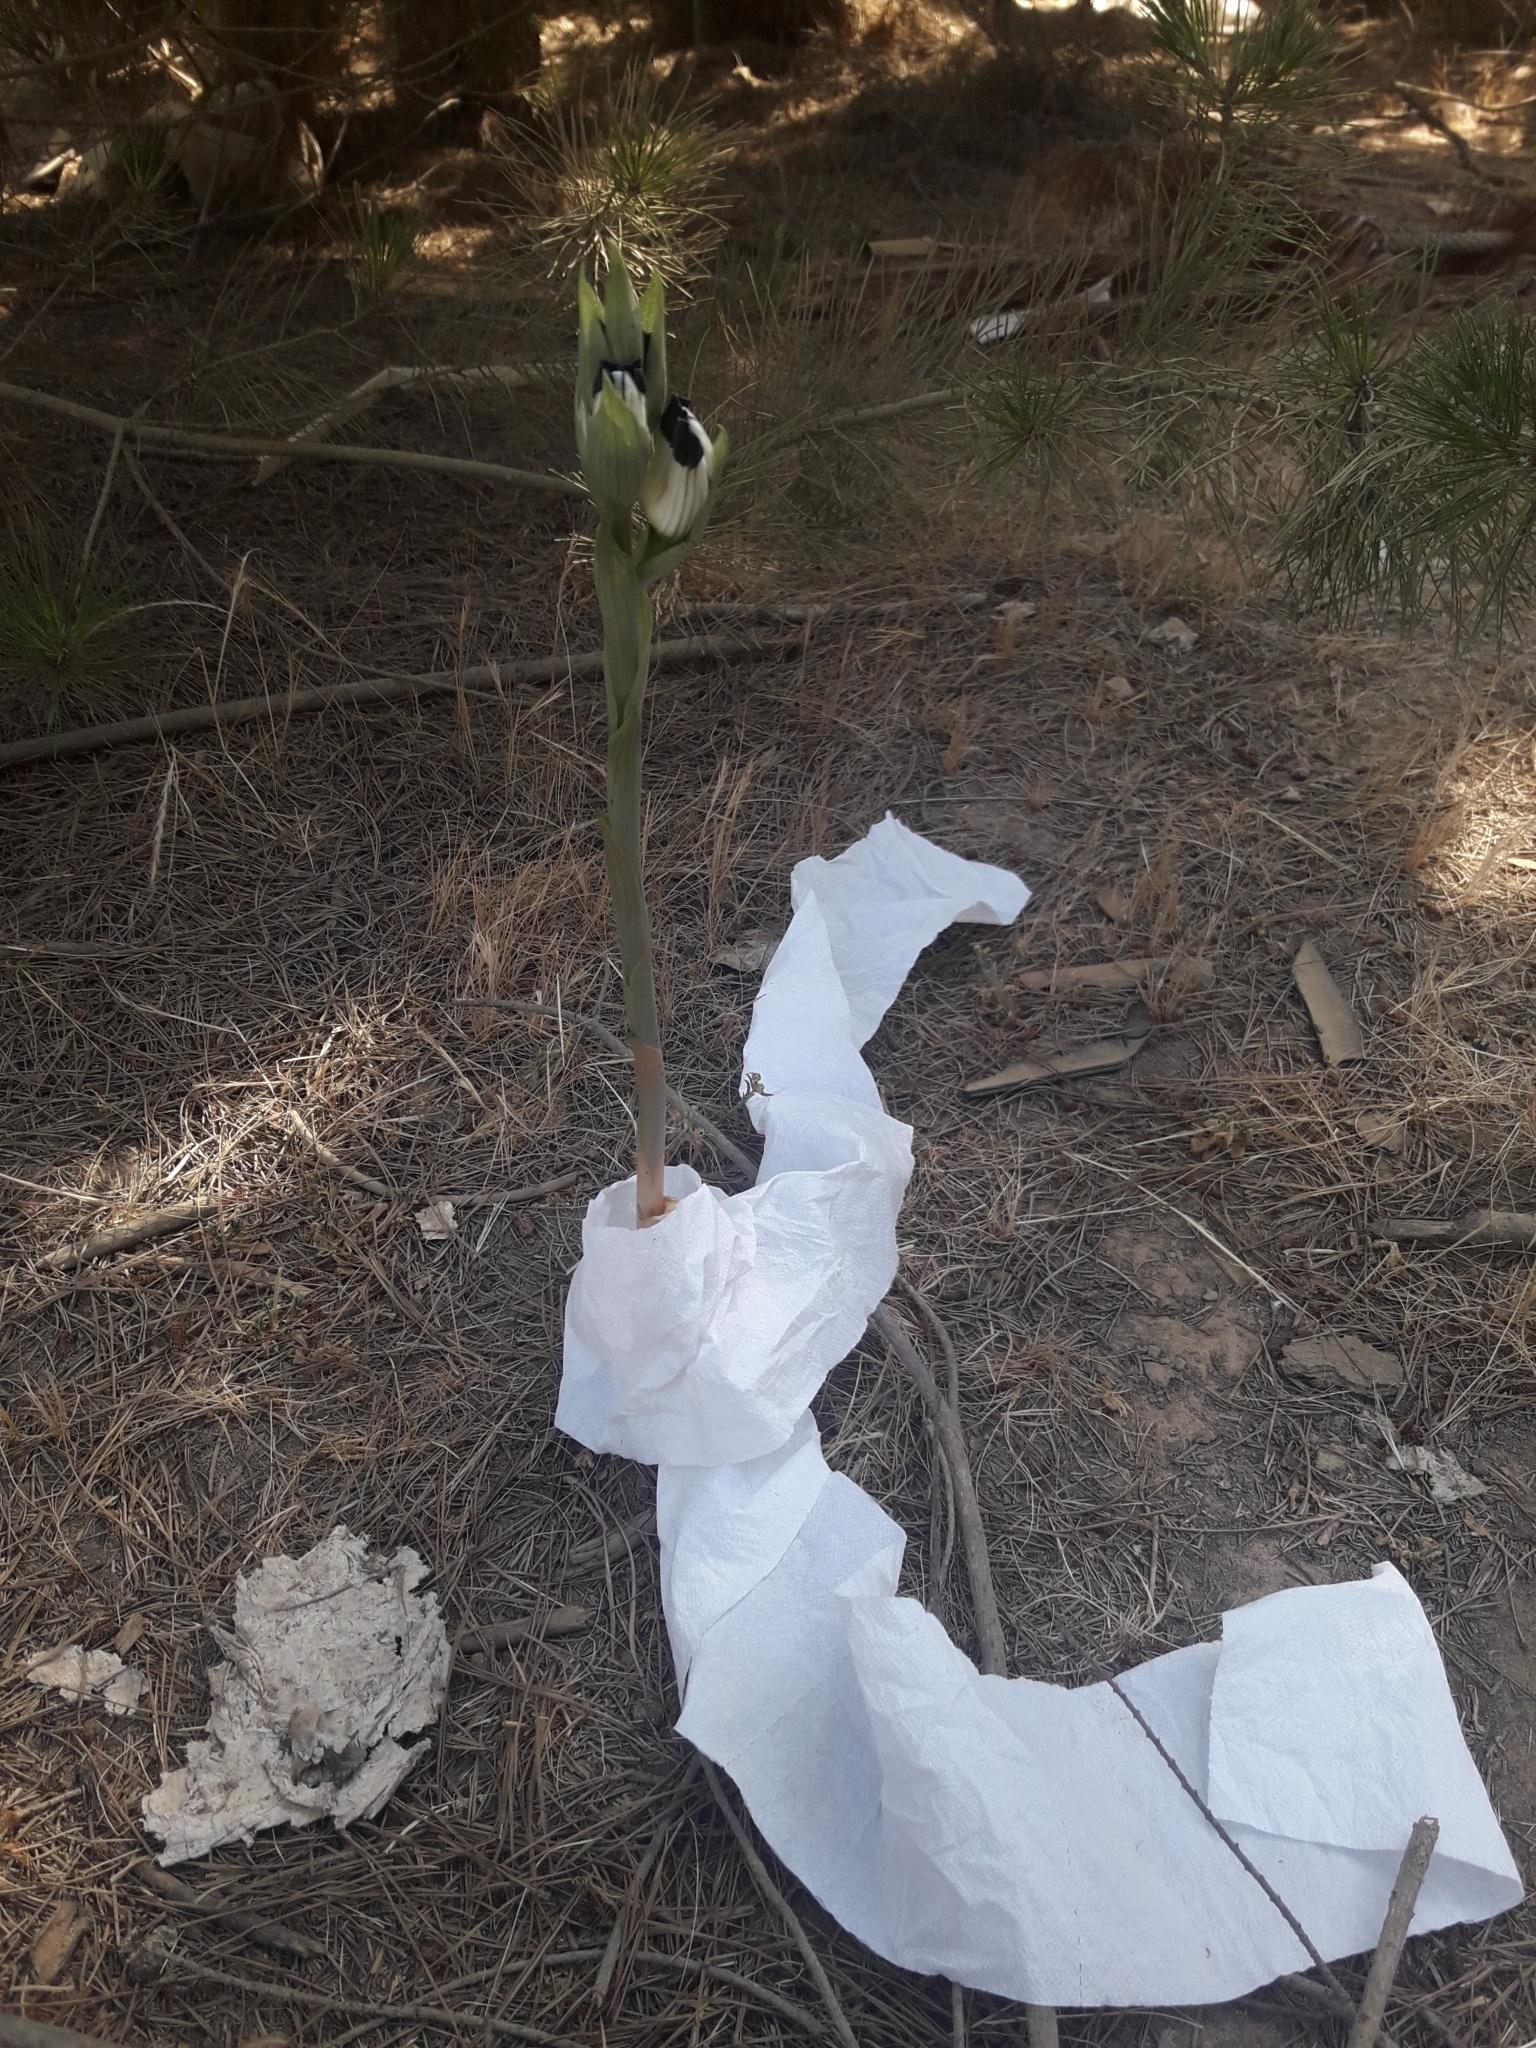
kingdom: Plantae
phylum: Tracheophyta
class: Liliopsida
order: Asparagales
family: Orchidaceae
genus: Chloraea
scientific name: Chloraea bletioides
